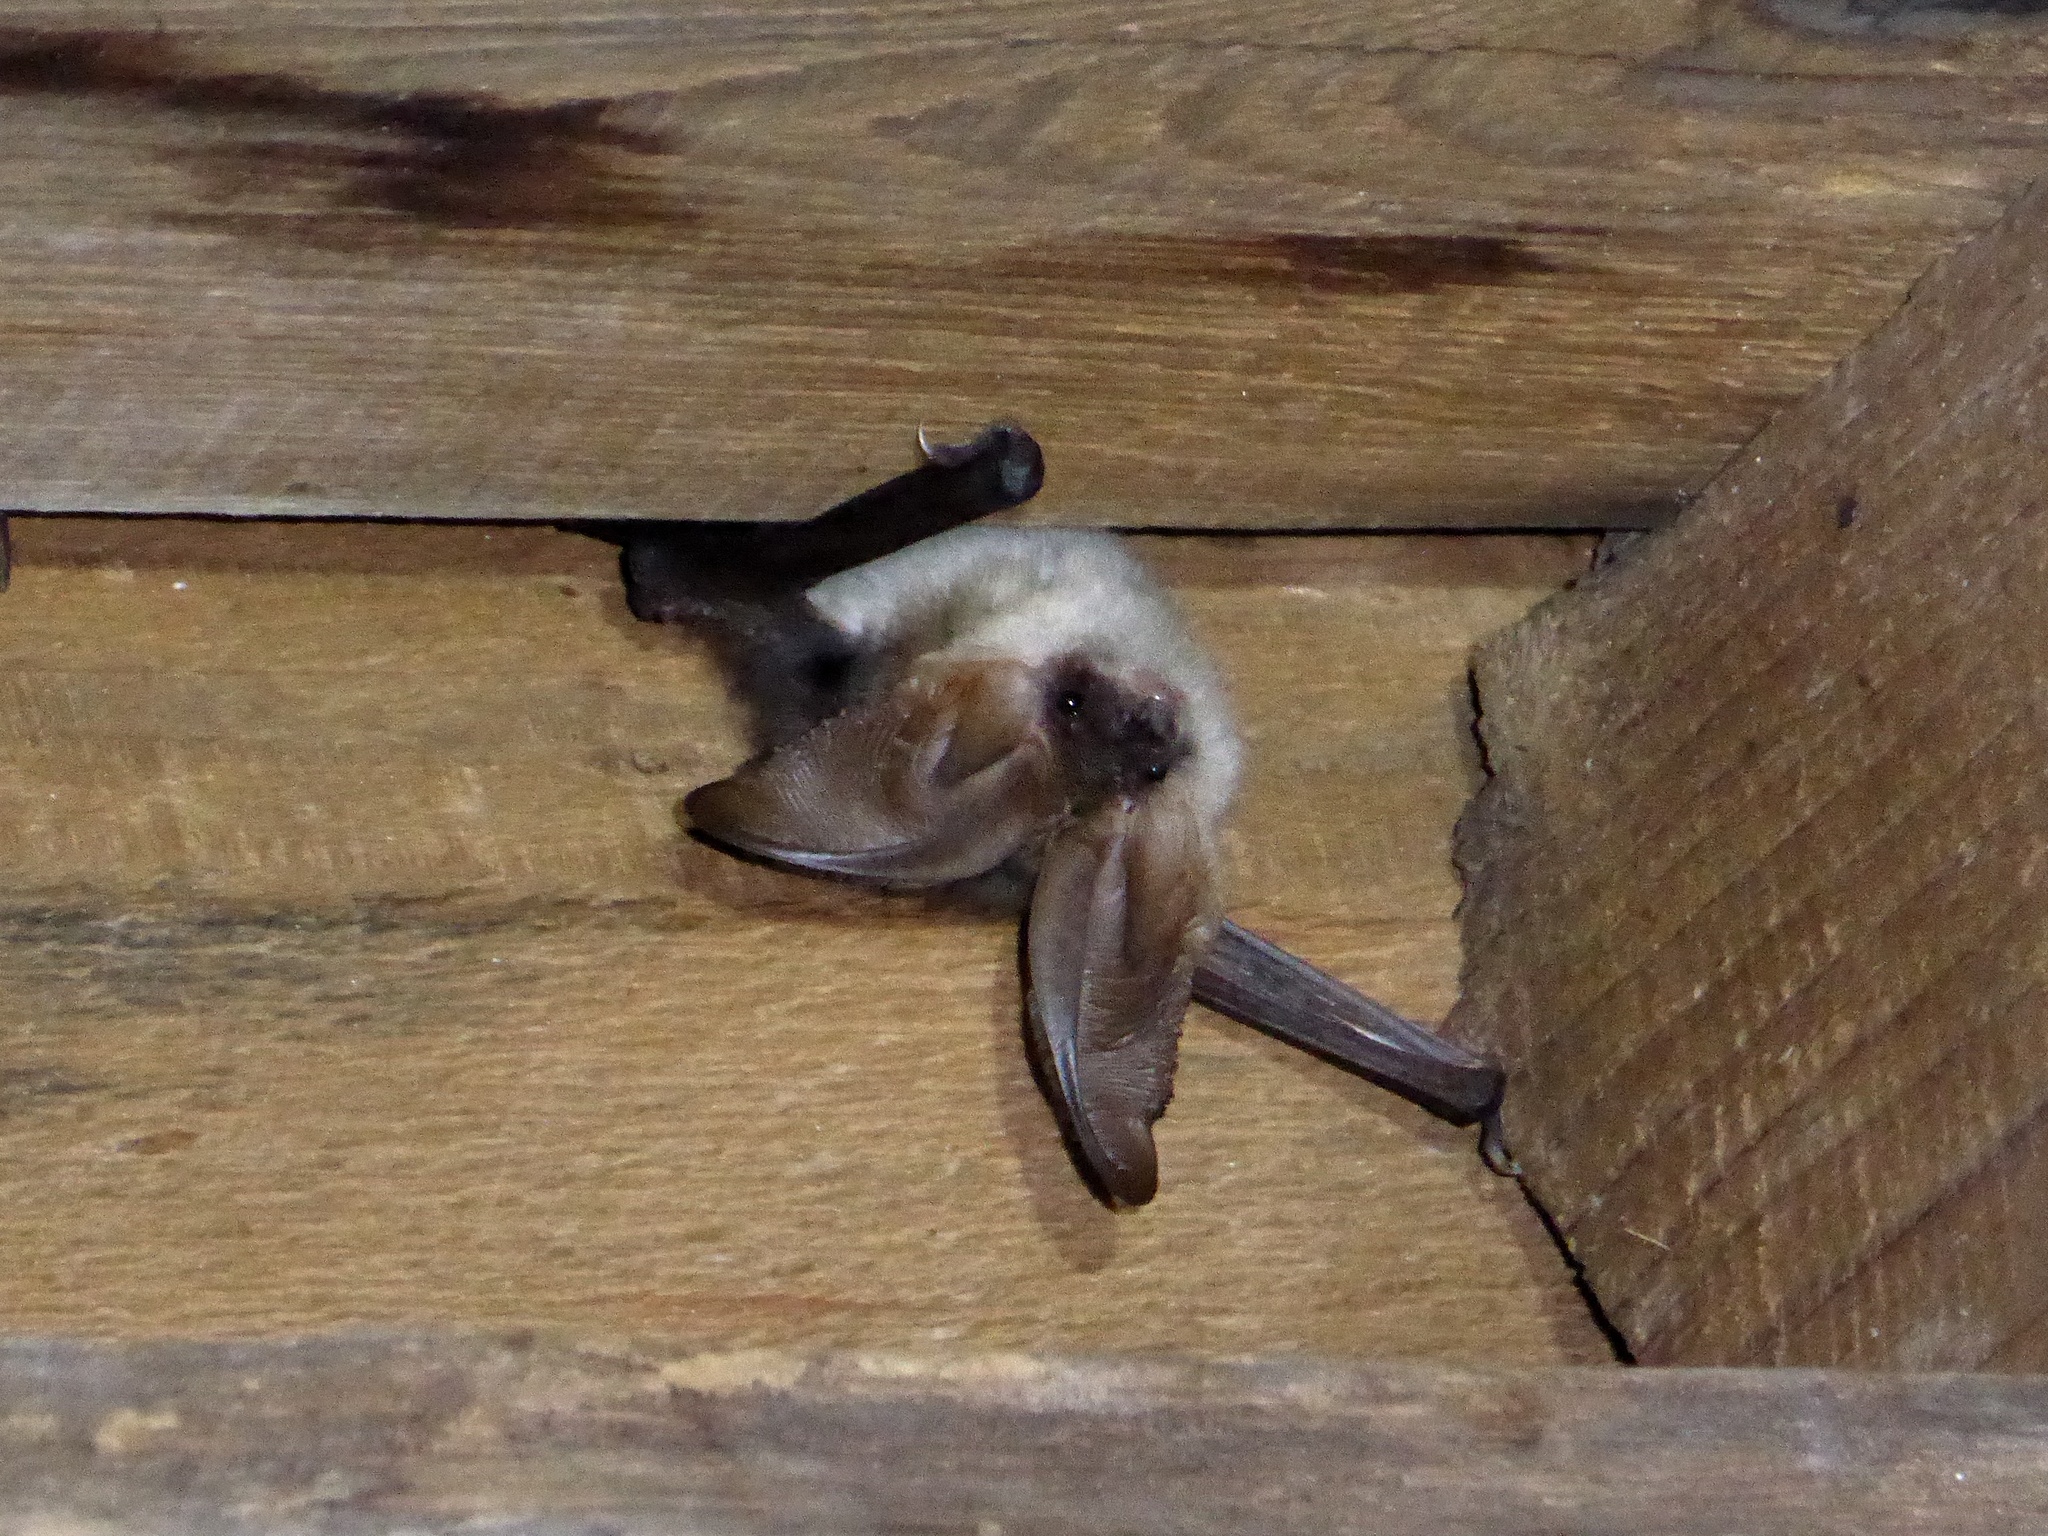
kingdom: Animalia
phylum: Chordata
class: Mammalia
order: Chiroptera
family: Vespertilionidae
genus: Plecotus
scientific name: Plecotus macrobullaris
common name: Mountain long-eared bat
